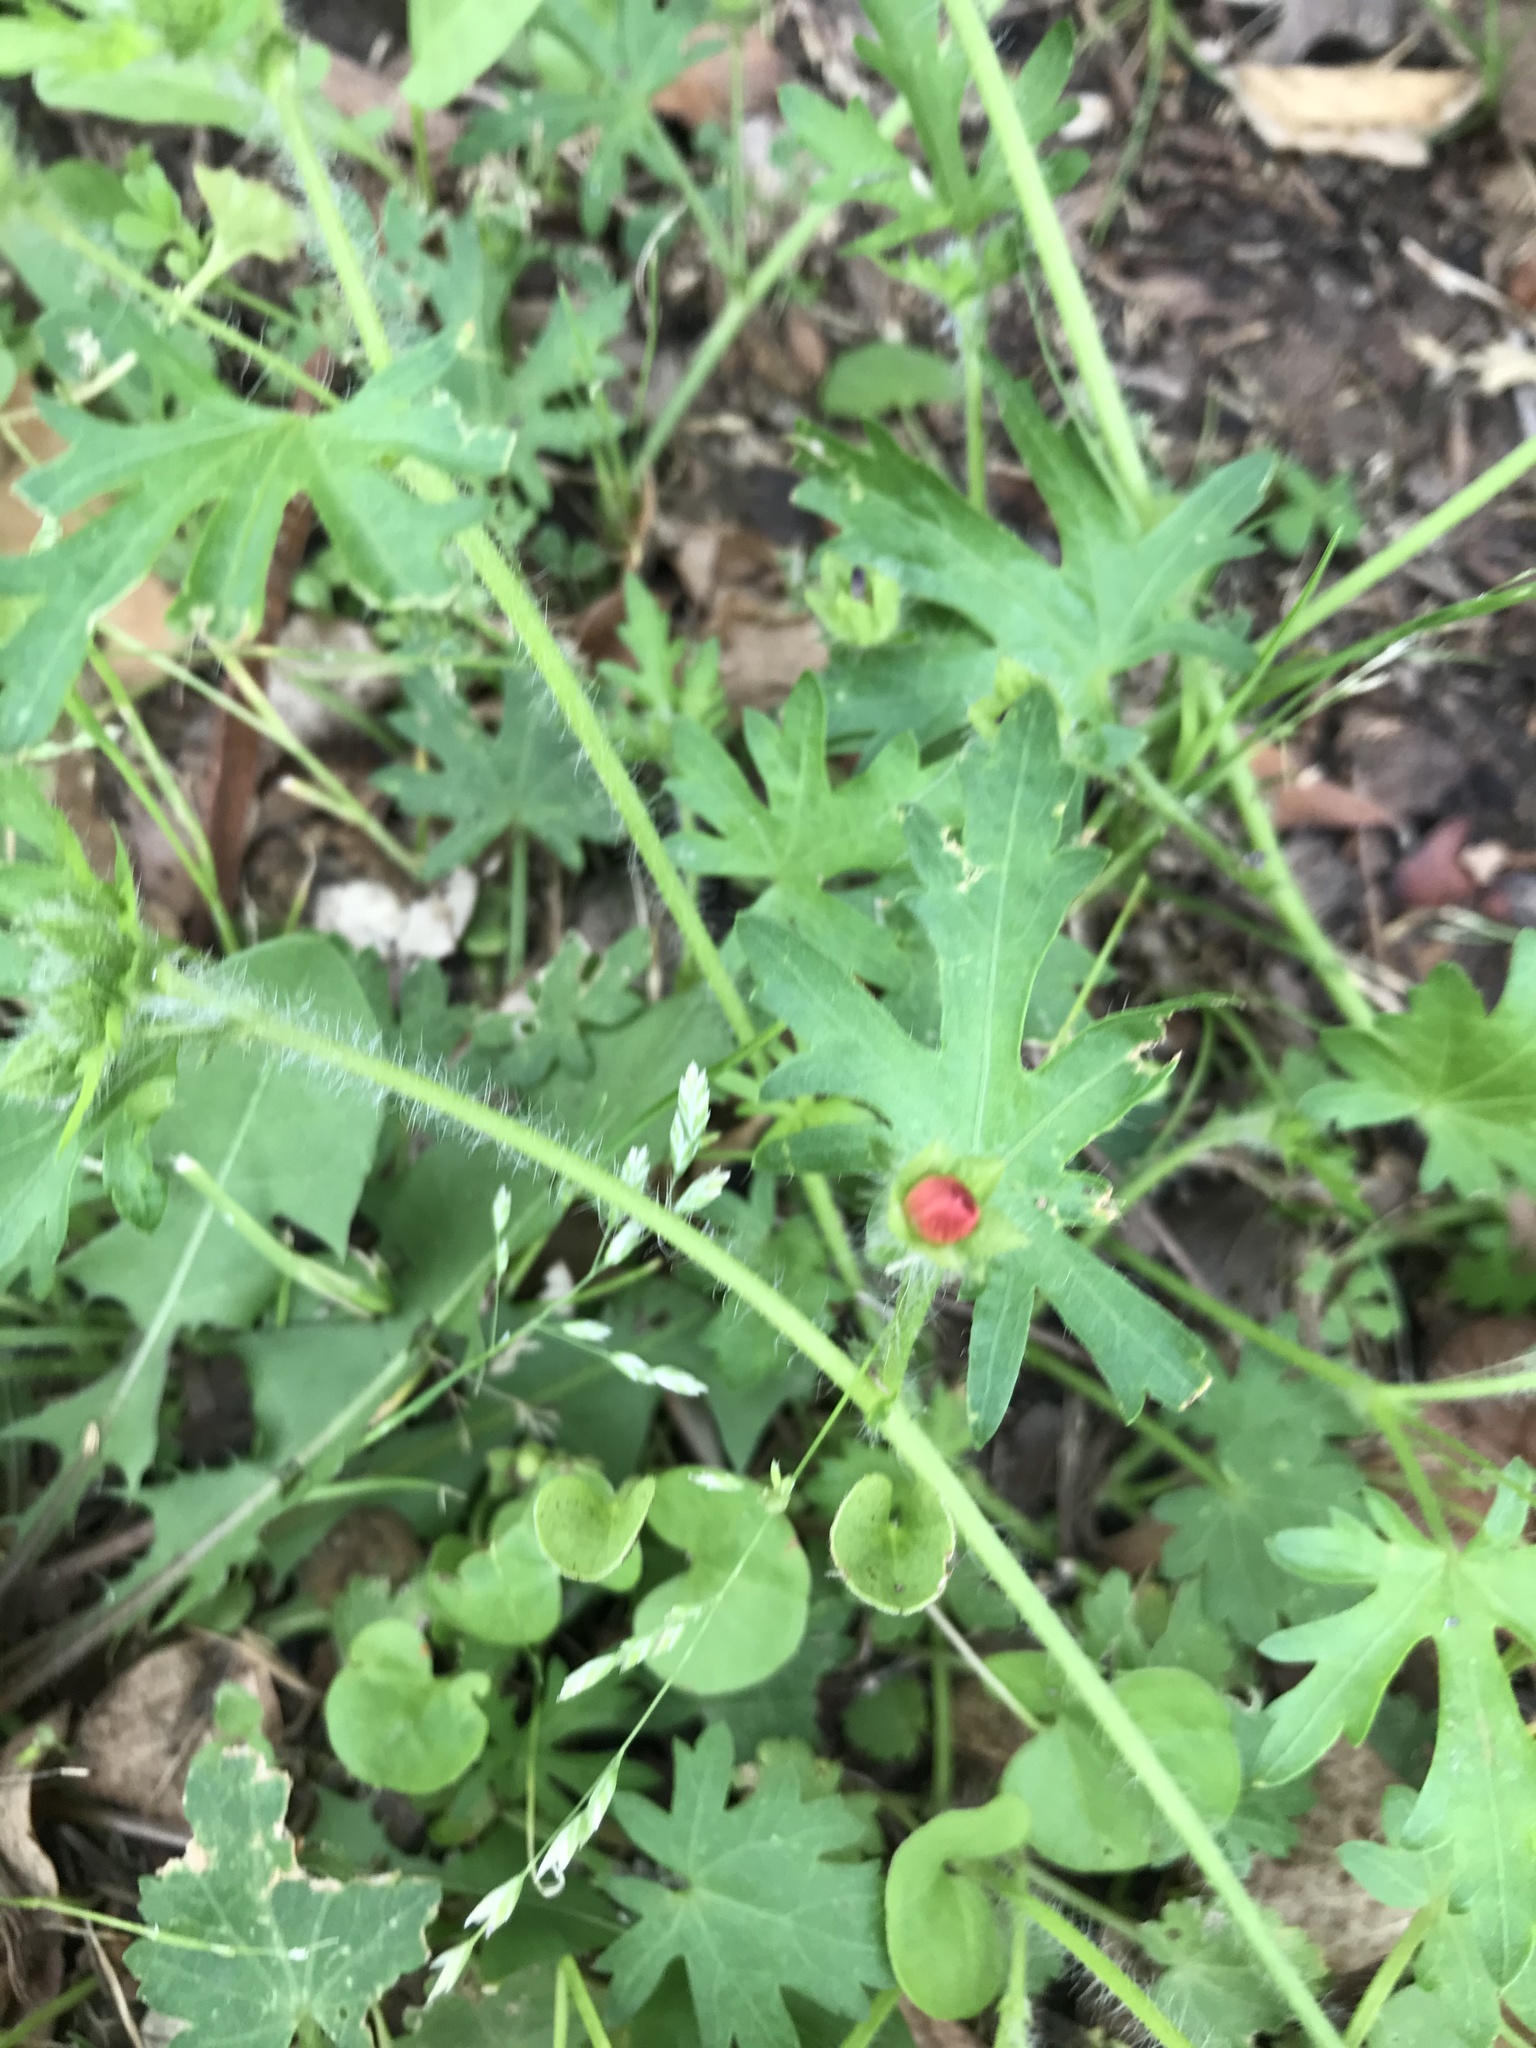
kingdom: Plantae
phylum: Tracheophyta
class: Magnoliopsida
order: Malvales
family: Malvaceae
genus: Modiola
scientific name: Modiola caroliniana
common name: Carolina bristlemallow
